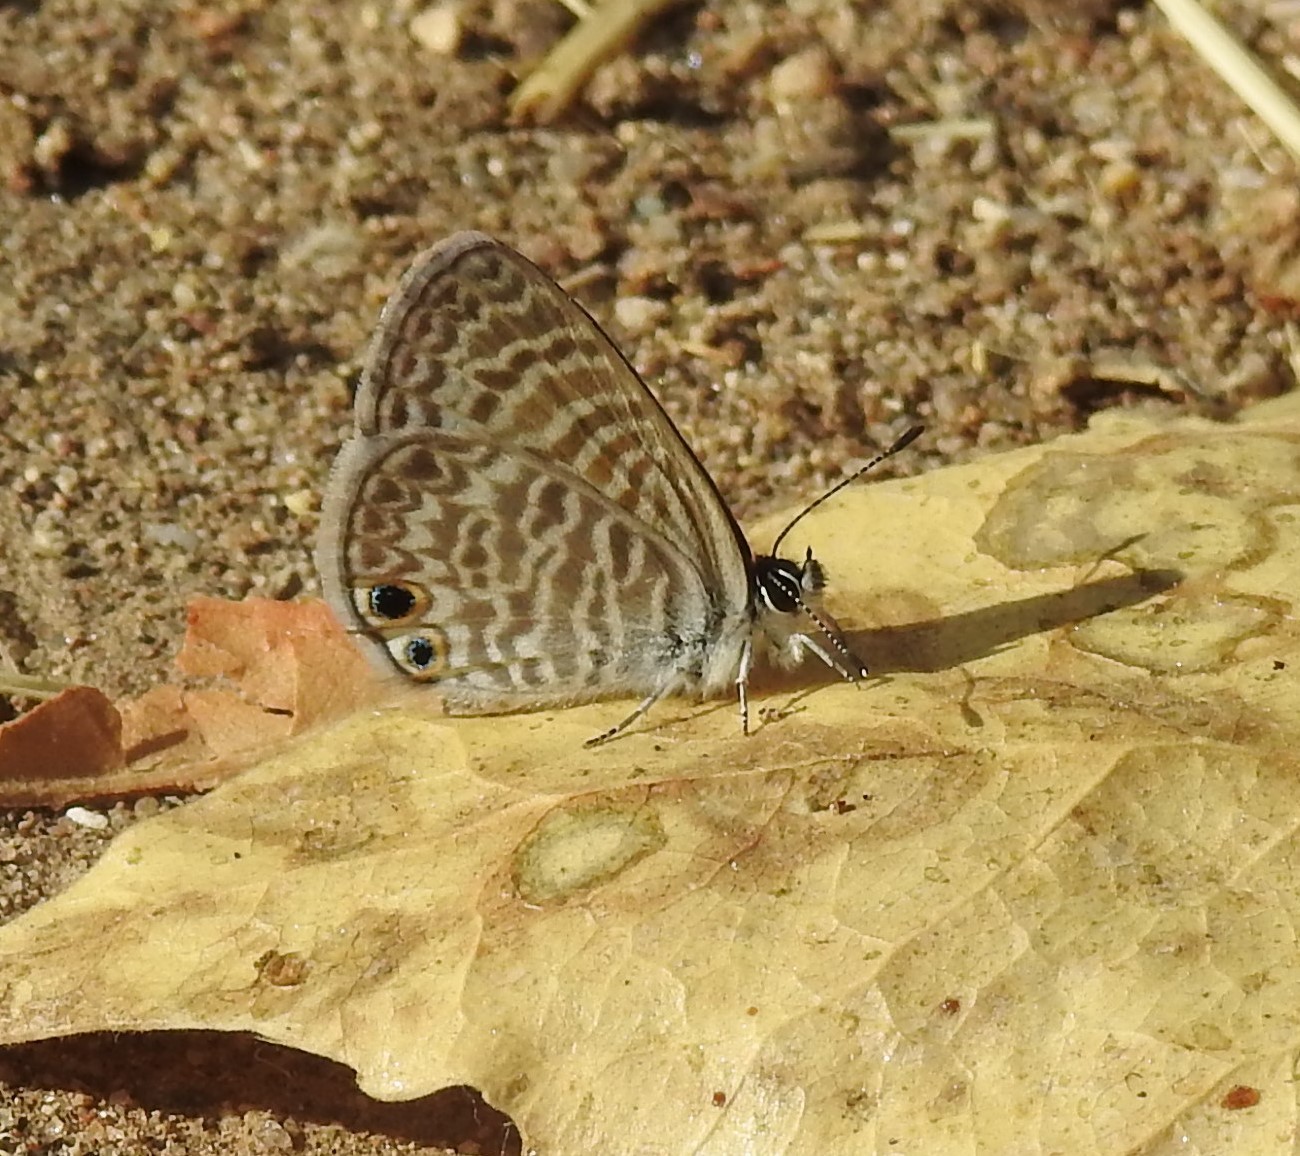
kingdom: Animalia
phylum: Arthropoda
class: Insecta
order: Lepidoptera
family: Lycaenidae
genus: Leptotes
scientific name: Leptotes marina
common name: Marine blue
